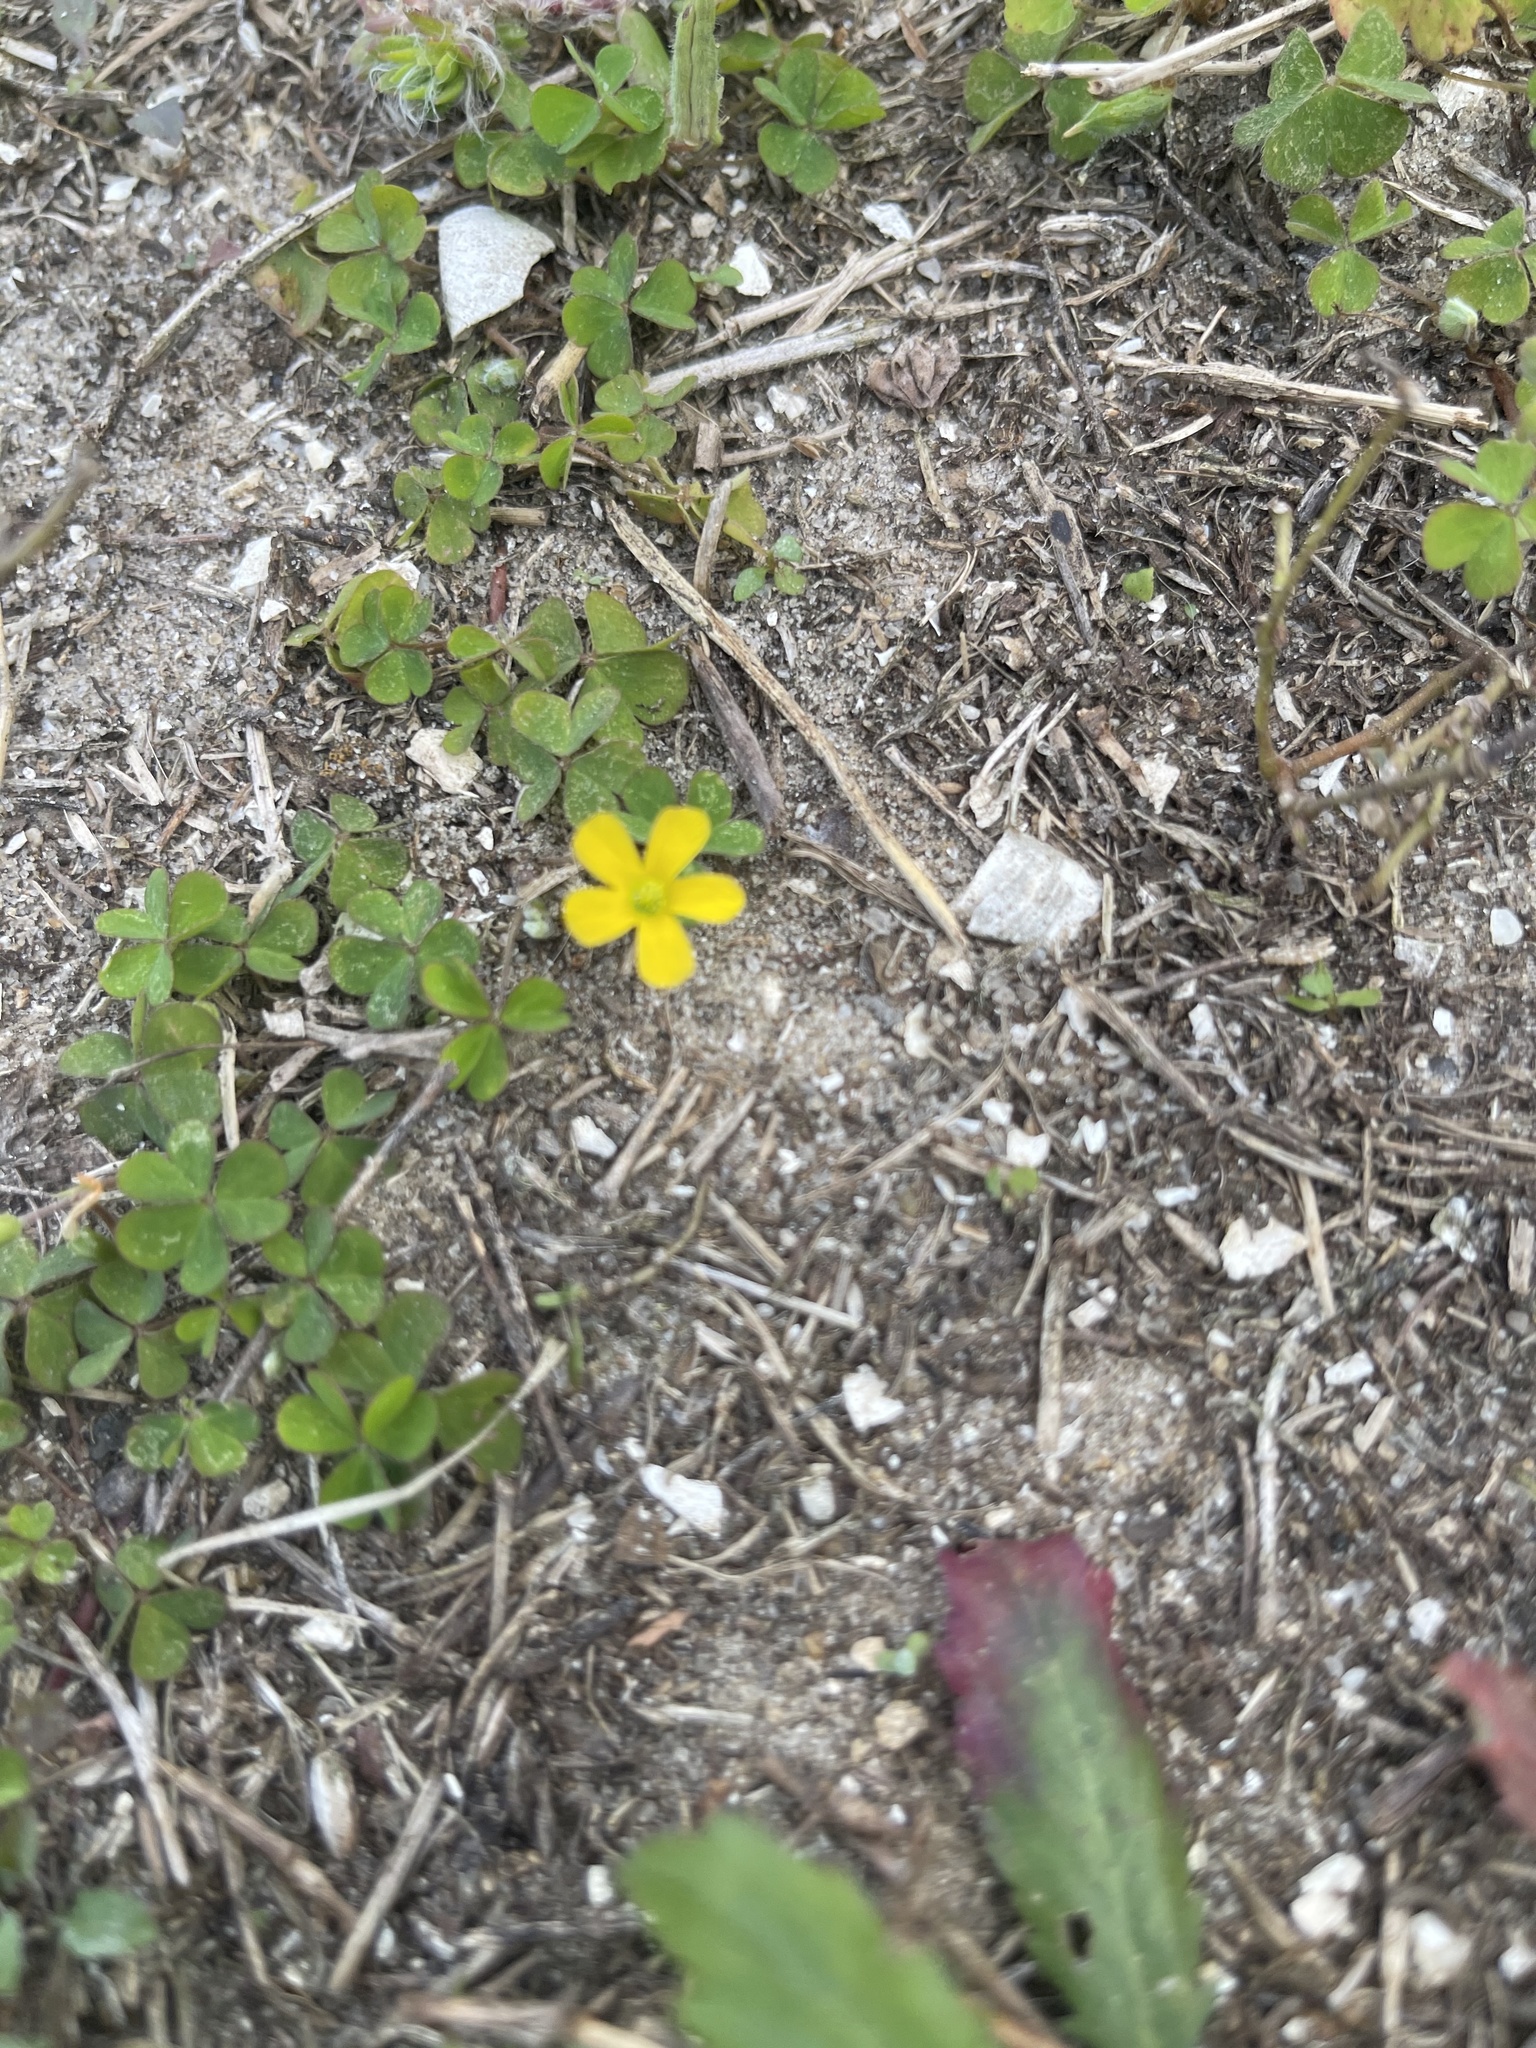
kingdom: Plantae
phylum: Tracheophyta
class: Magnoliopsida
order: Oxalidales
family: Oxalidaceae
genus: Oxalis
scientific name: Oxalis corniculata
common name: Procumbent yellow-sorrel
